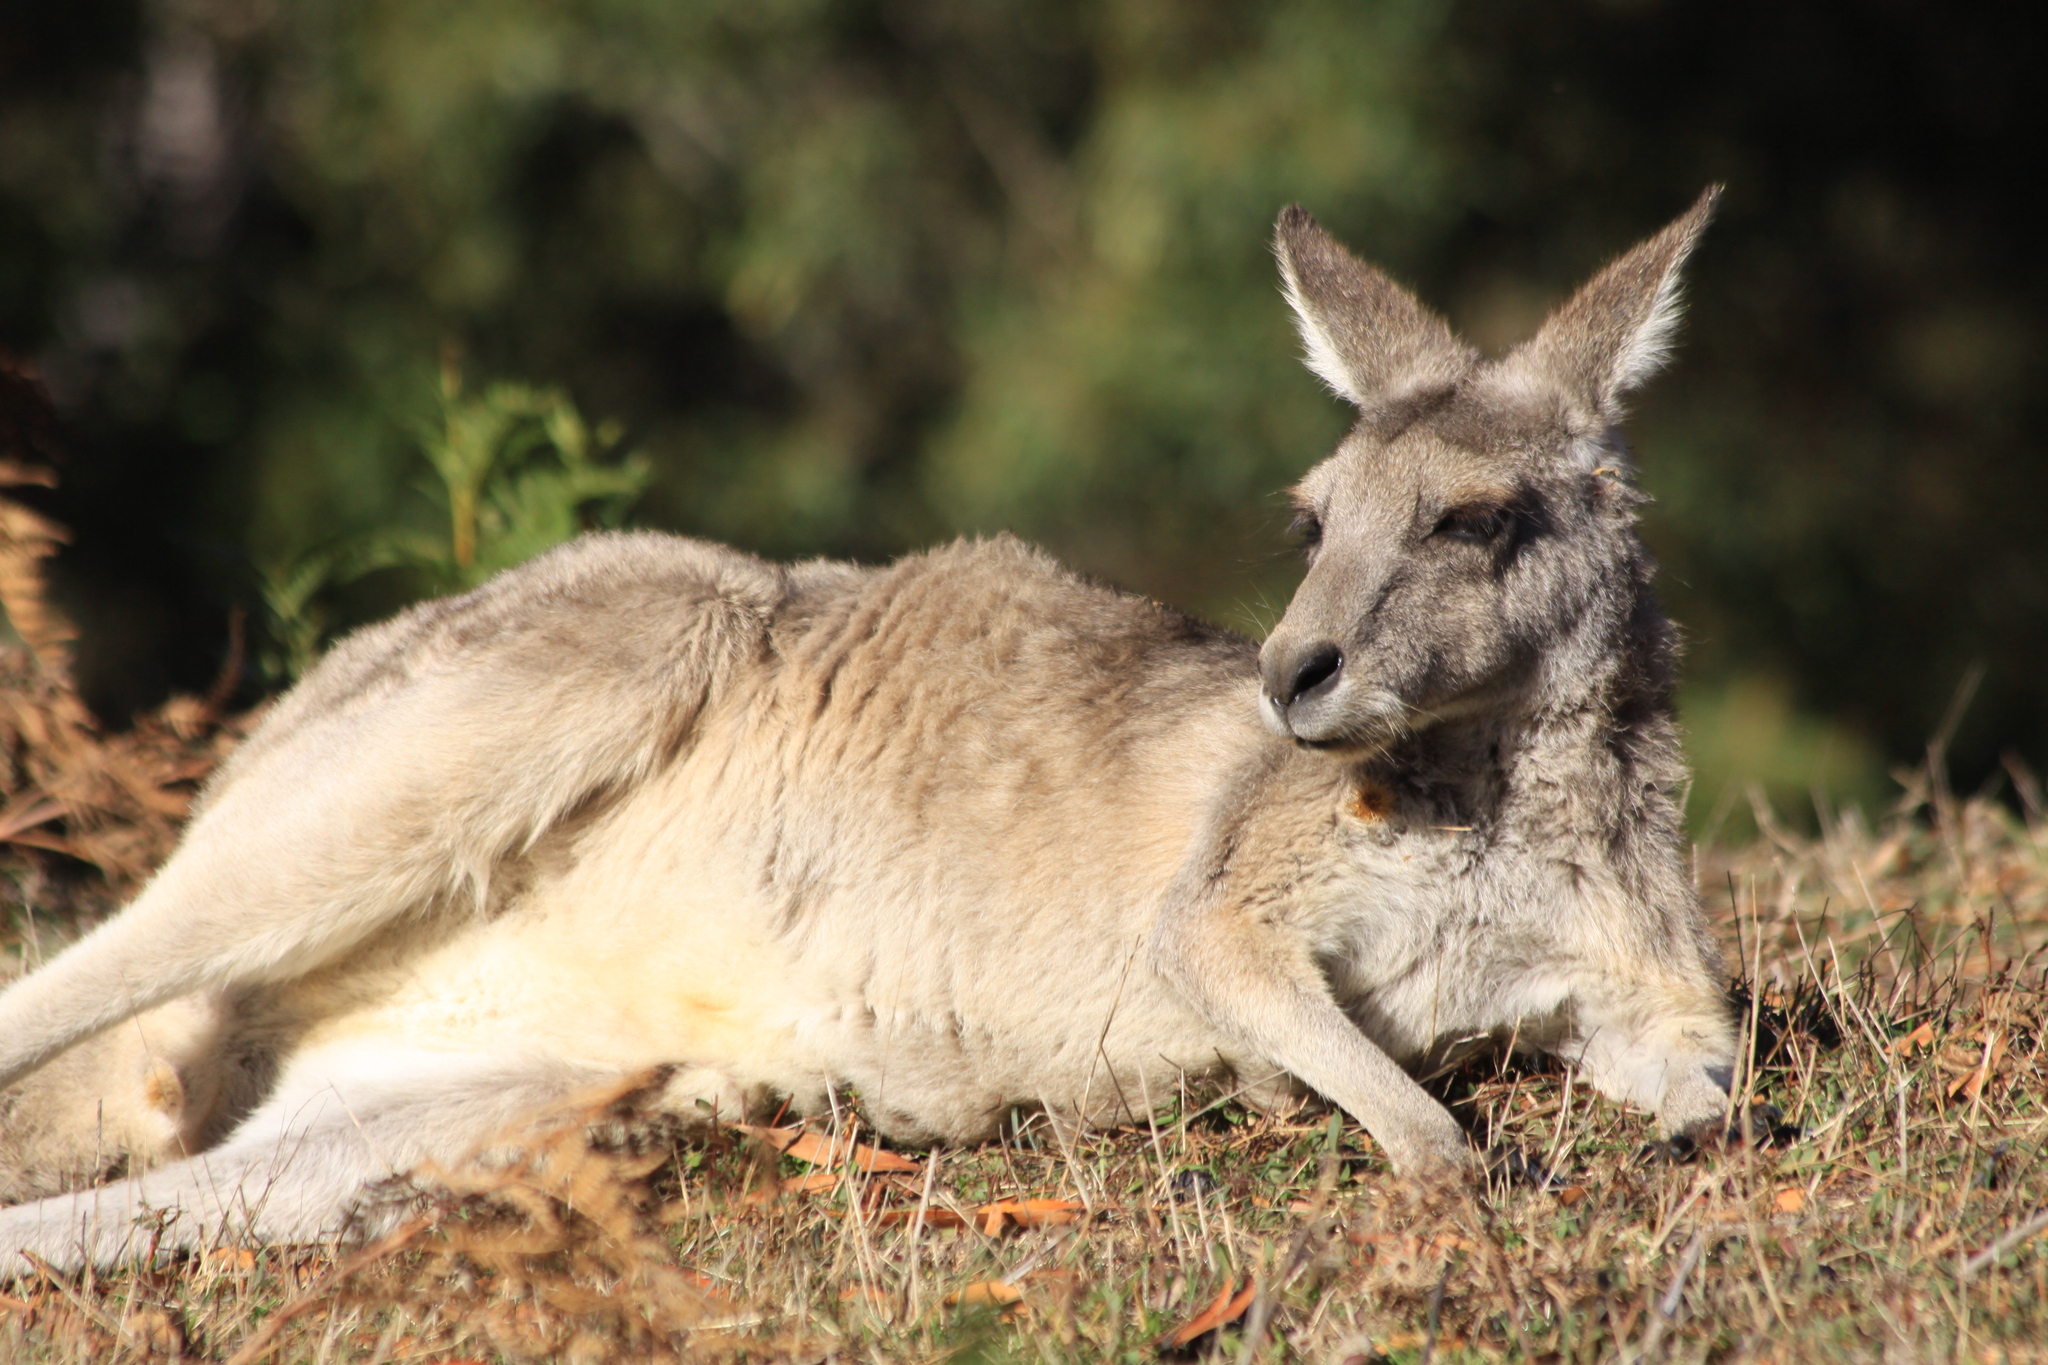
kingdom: Animalia
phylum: Chordata
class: Mammalia
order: Diprotodontia
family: Macropodidae
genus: Macropus
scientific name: Macropus giganteus
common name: Eastern grey kangaroo
